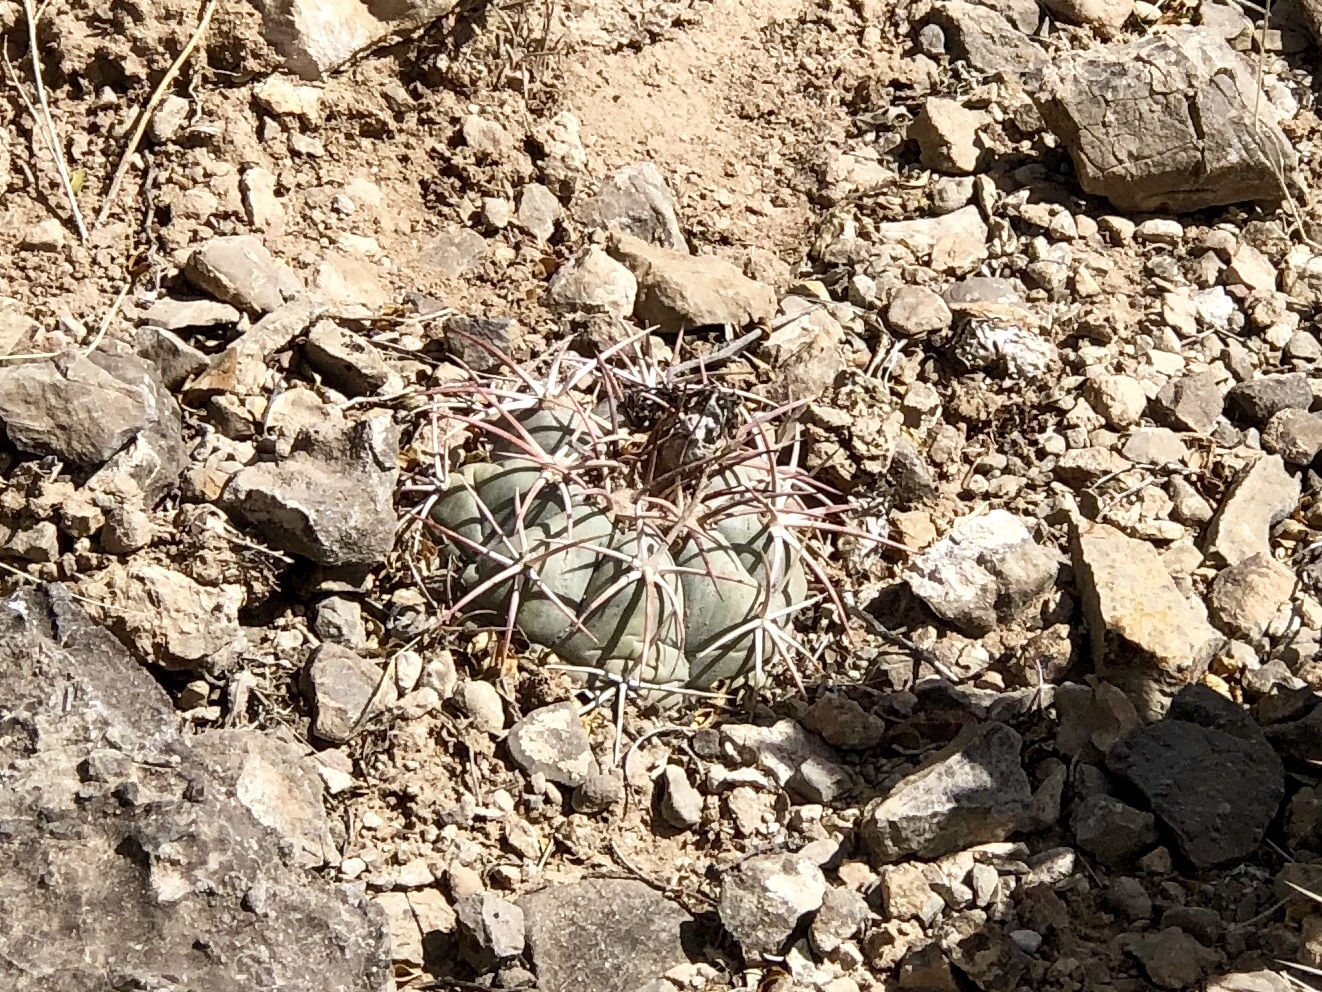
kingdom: Plantae
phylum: Tracheophyta
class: Magnoliopsida
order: Caryophyllales
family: Cactaceae
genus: Echinocactus
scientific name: Echinocactus horizonthalonius
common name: Devilshead
